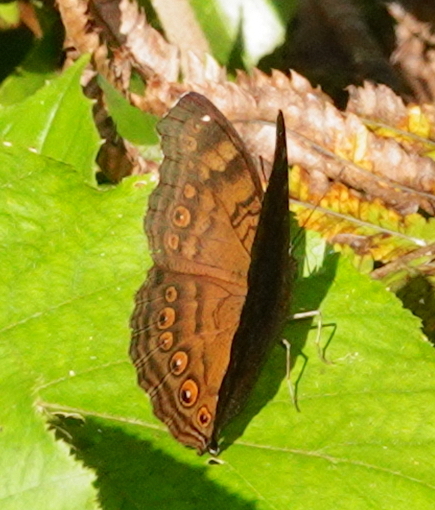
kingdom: Animalia
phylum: Arthropoda
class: Insecta
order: Lepidoptera
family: Nymphalidae
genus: Junonia
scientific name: Junonia hedonia
